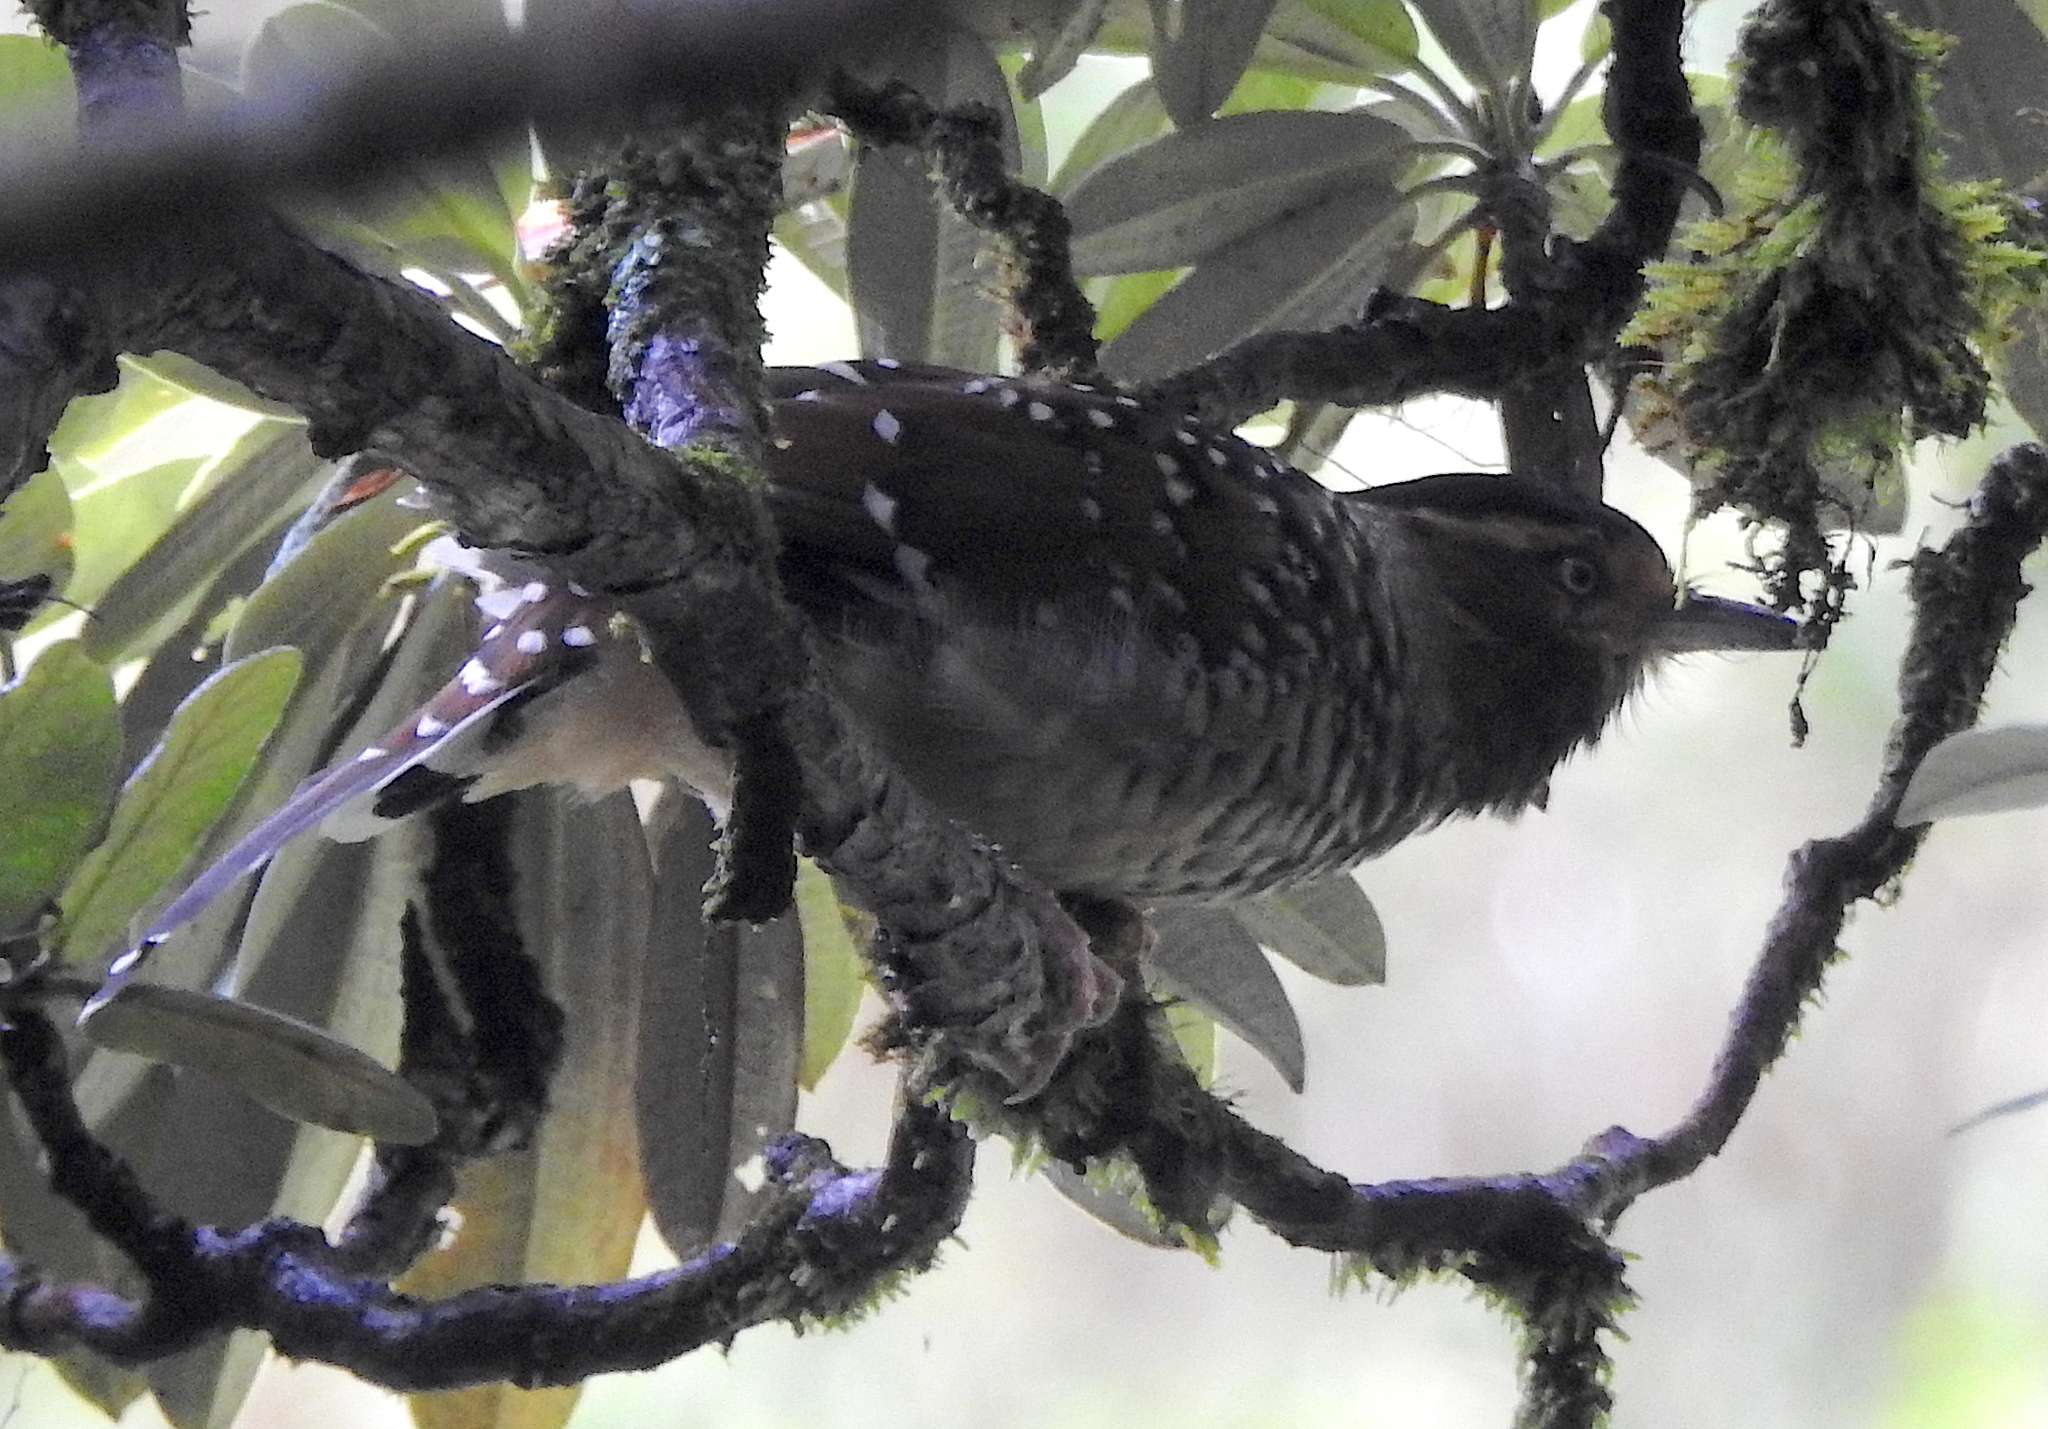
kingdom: Animalia
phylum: Chordata
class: Aves
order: Passeriformes
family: Leiothrichidae
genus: Garrulax
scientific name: Garrulax ocellatus
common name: Spotted laughingthrush
